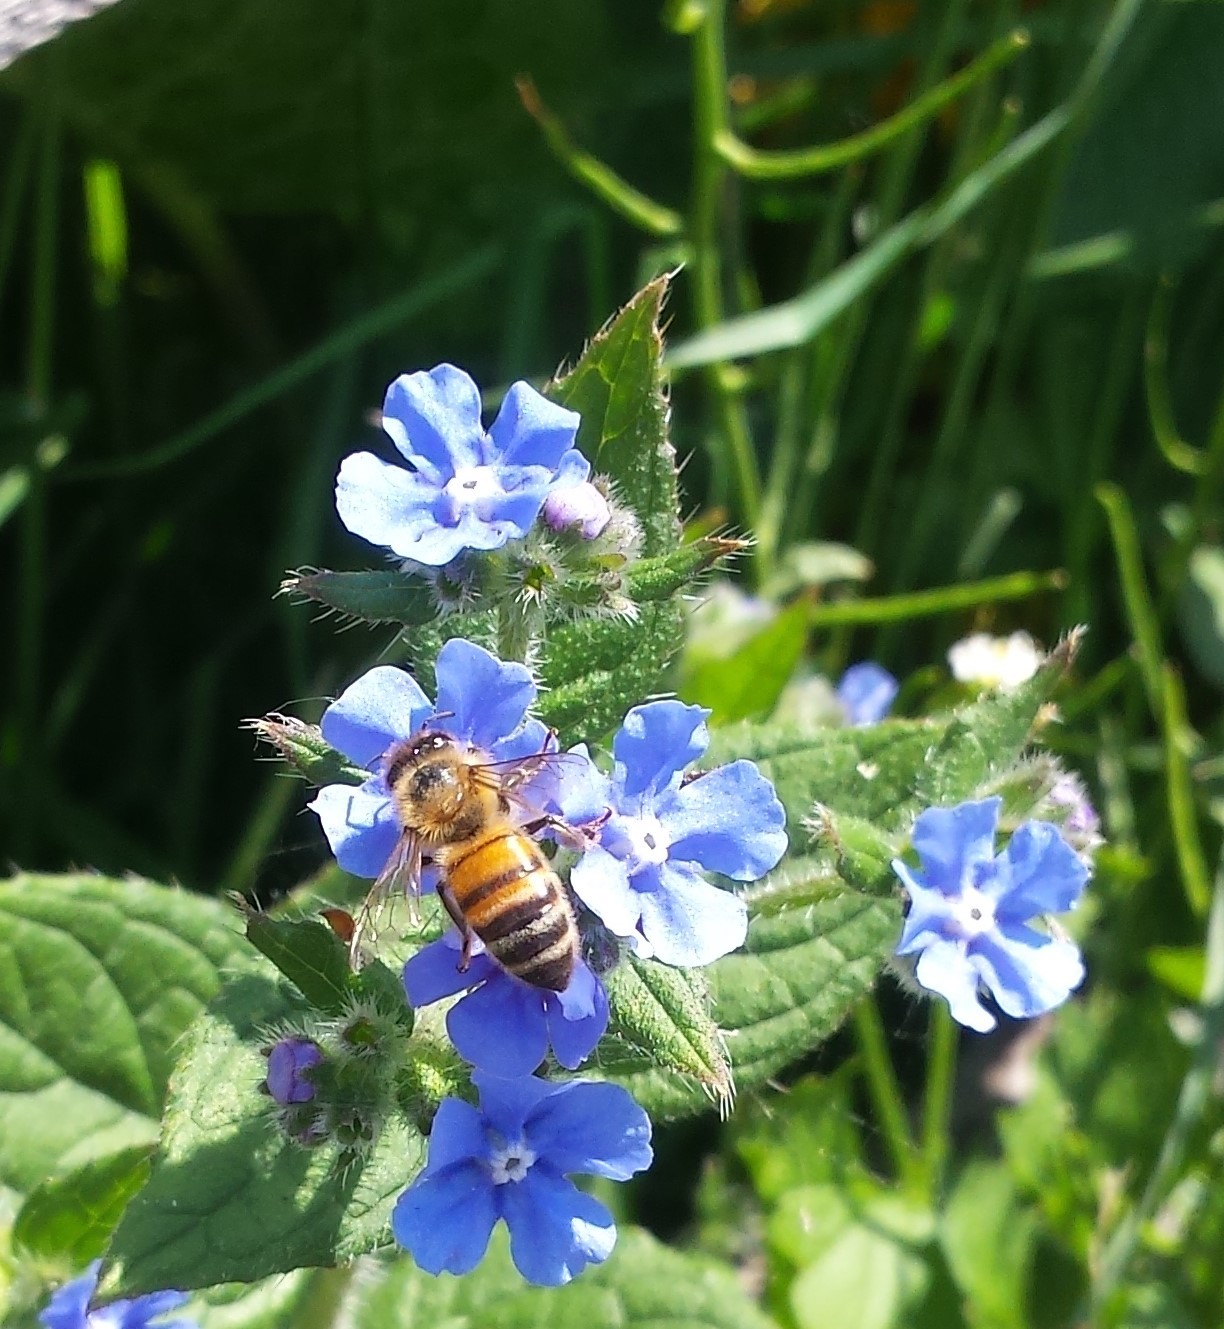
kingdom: Animalia
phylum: Arthropoda
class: Insecta
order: Hymenoptera
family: Apidae
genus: Apis
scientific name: Apis mellifera
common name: Honey bee
